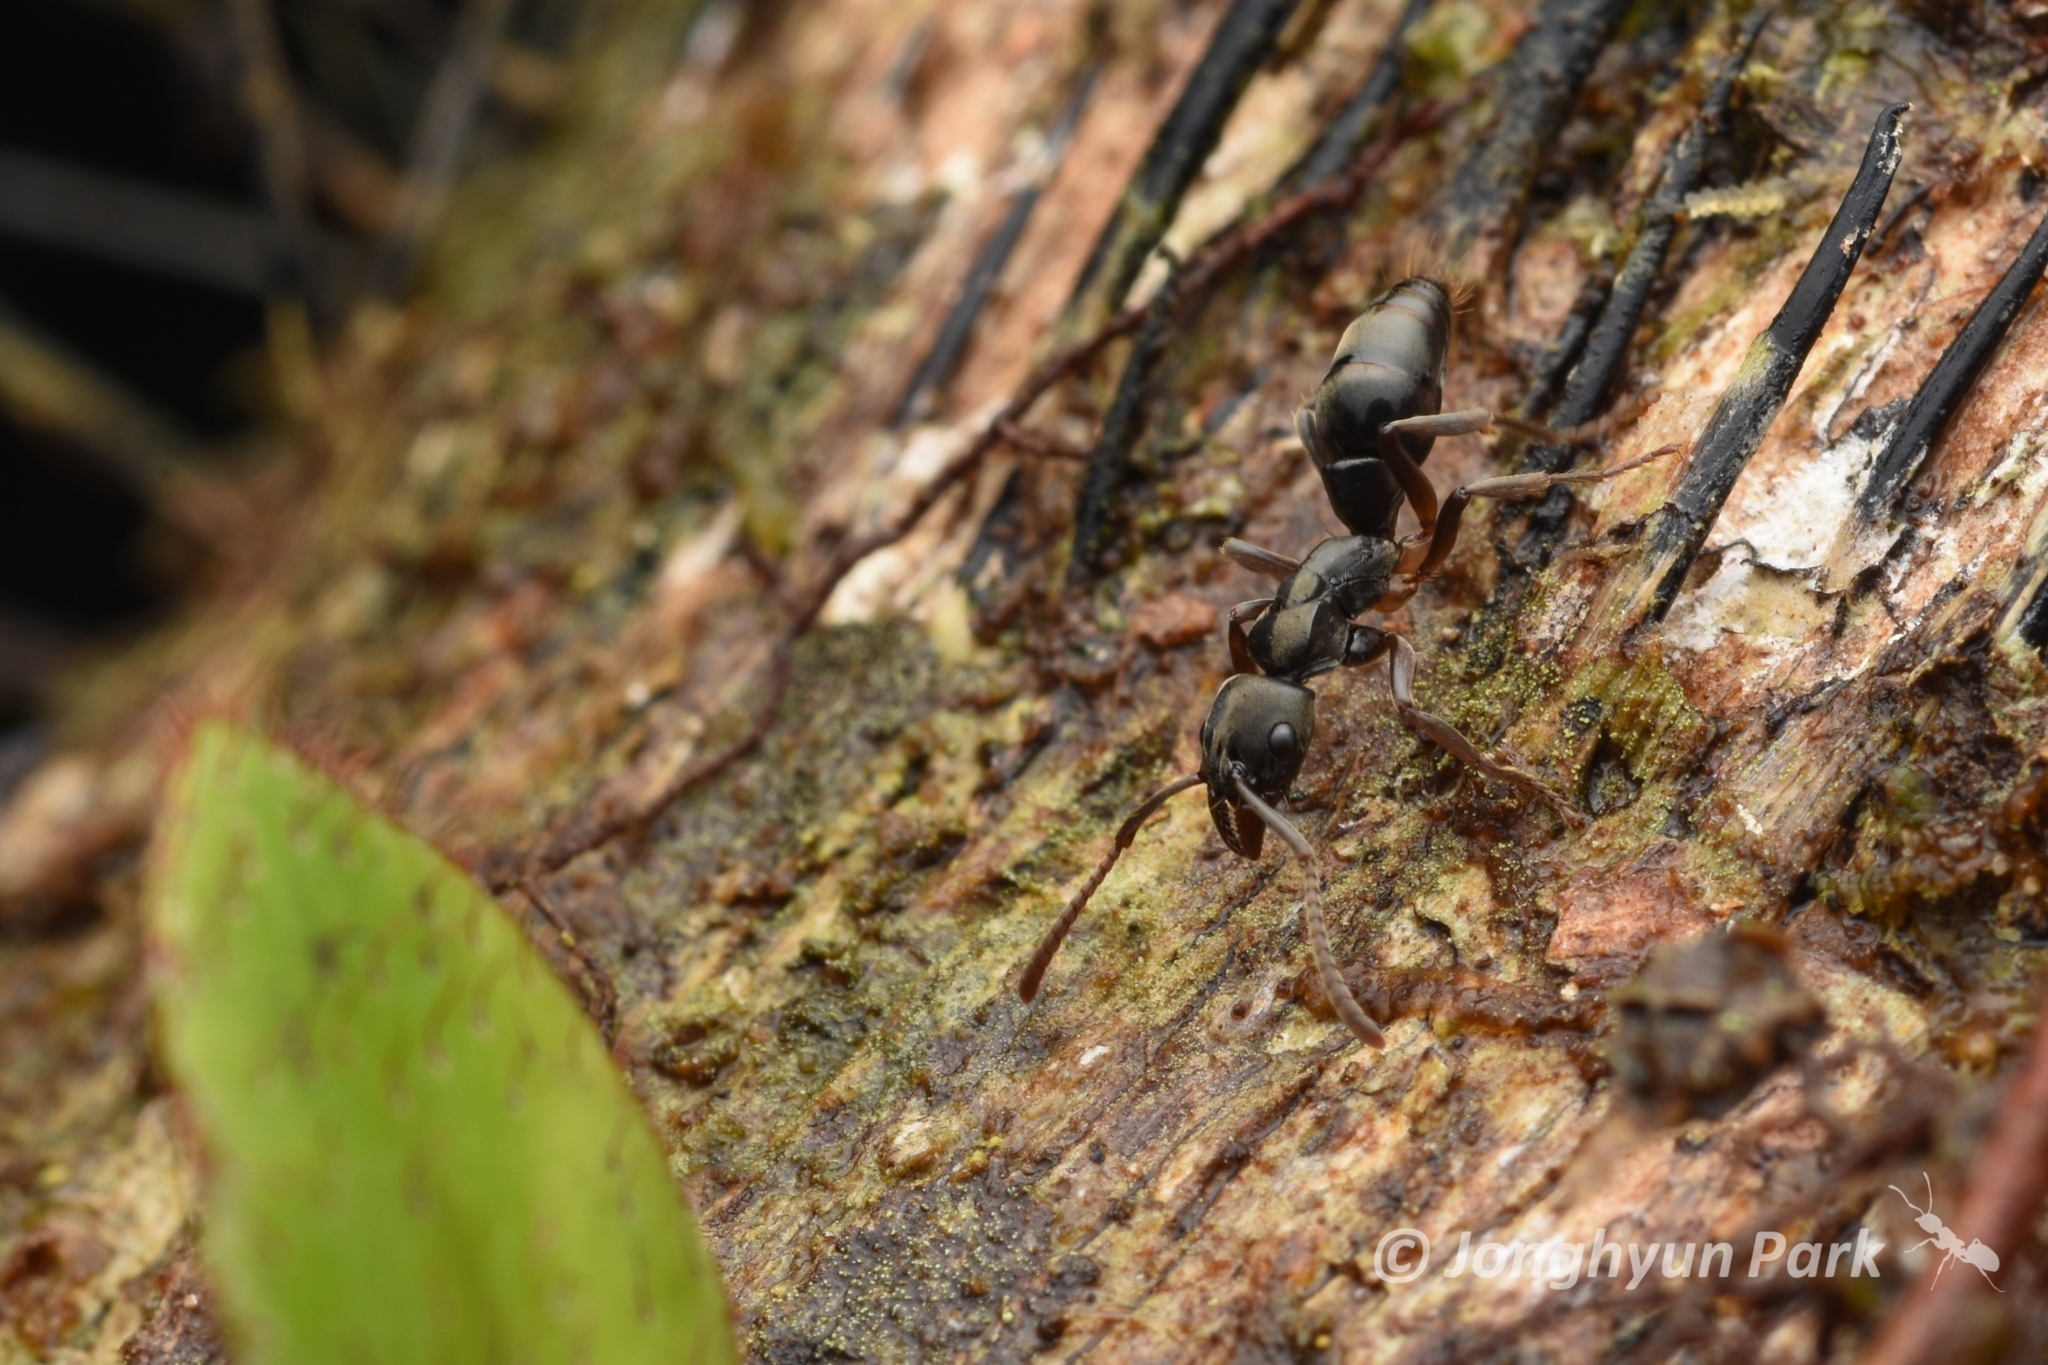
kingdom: Animalia
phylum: Arthropoda
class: Insecta
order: Hymenoptera
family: Formicidae
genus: Pachycondyla
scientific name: Pachycondyla carinulata
